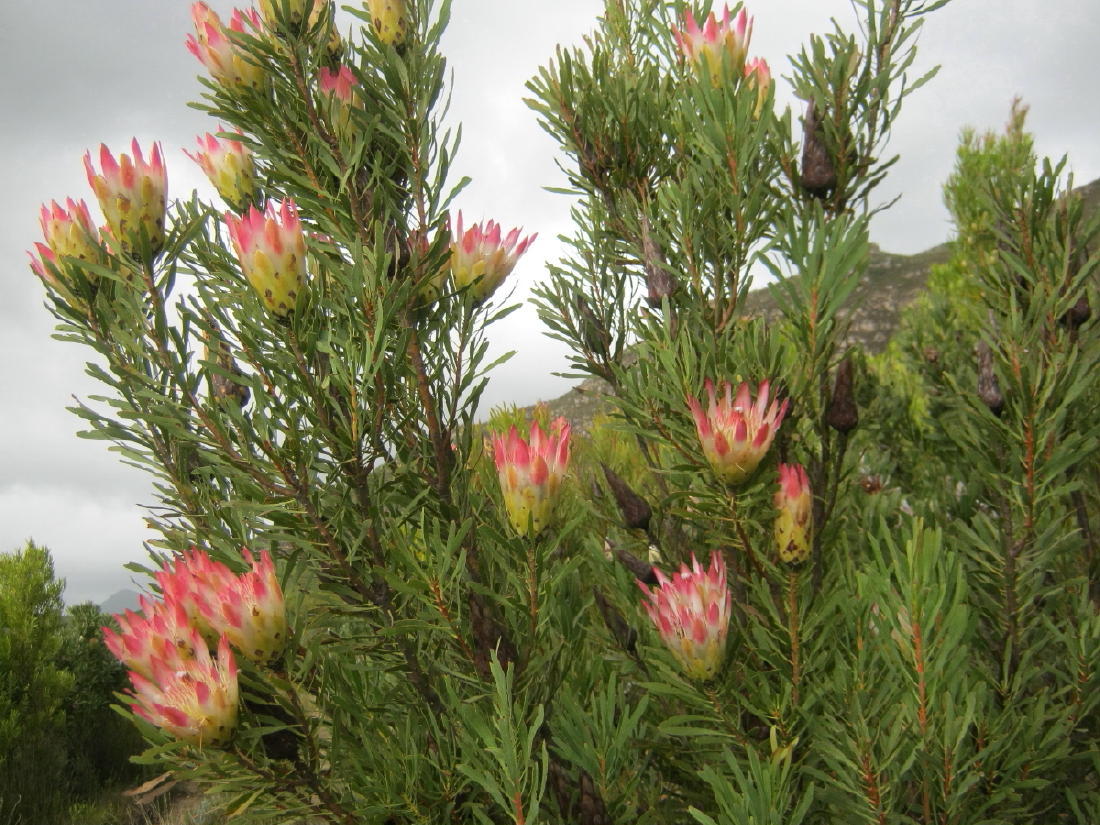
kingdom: Plantae
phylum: Tracheophyta
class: Magnoliopsida
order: Proteales
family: Proteaceae
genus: Protea
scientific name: Protea repens
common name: Sugarbush
